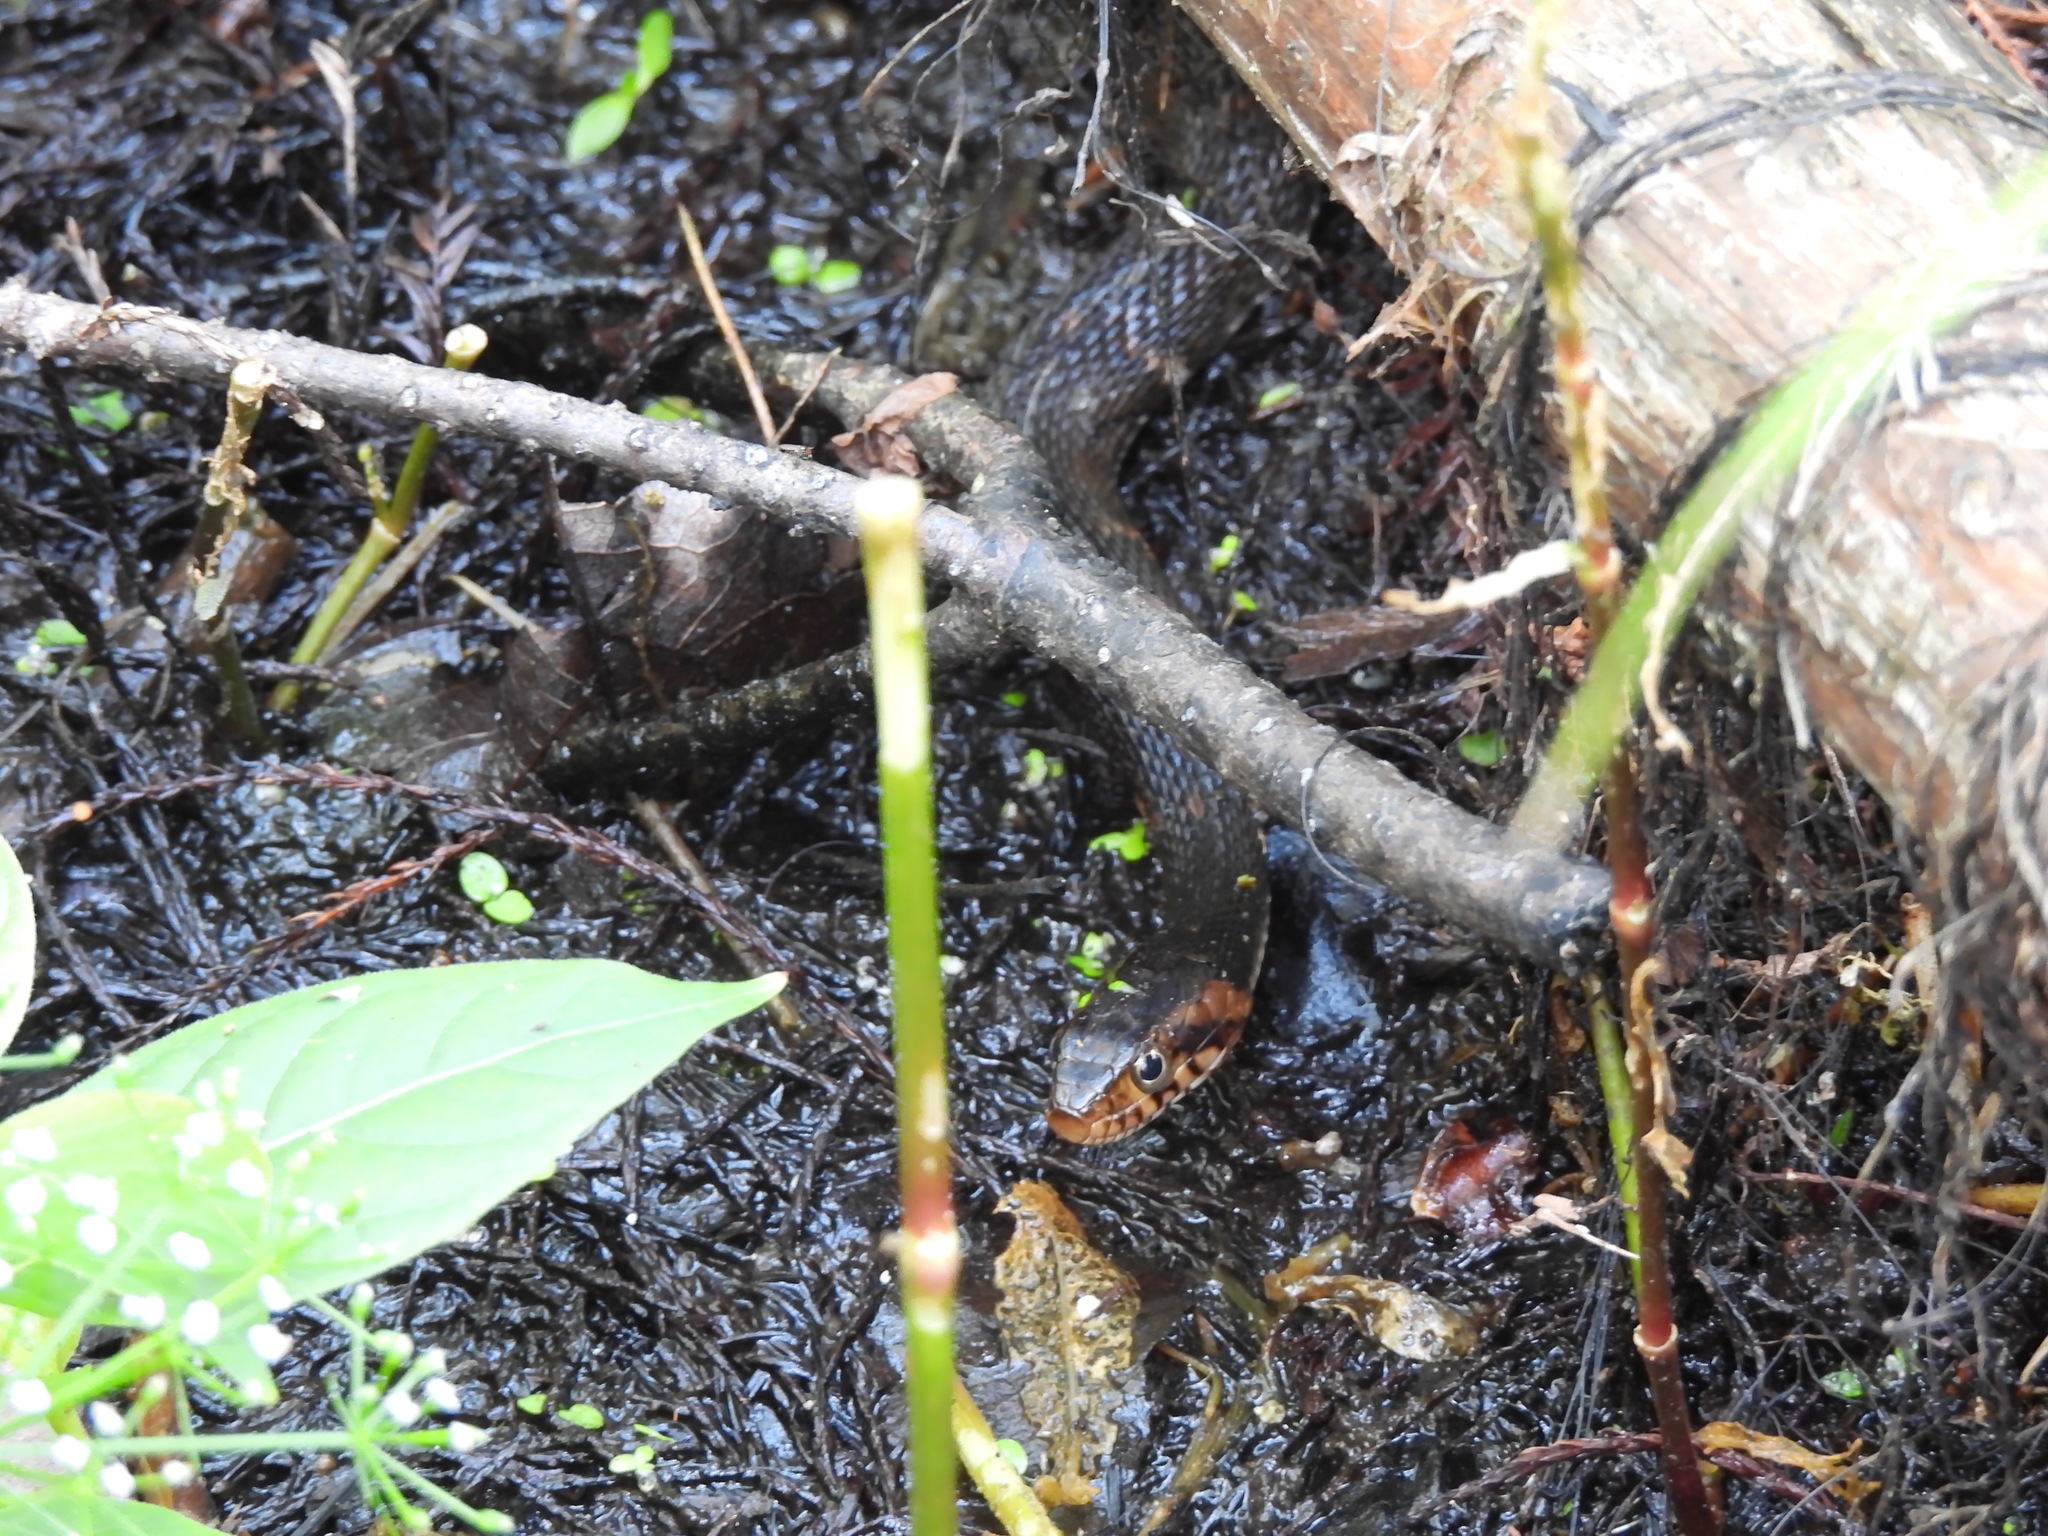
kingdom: Animalia
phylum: Chordata
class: Squamata
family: Colubridae
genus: Nerodia
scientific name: Nerodia fasciata
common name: Southern water snake
